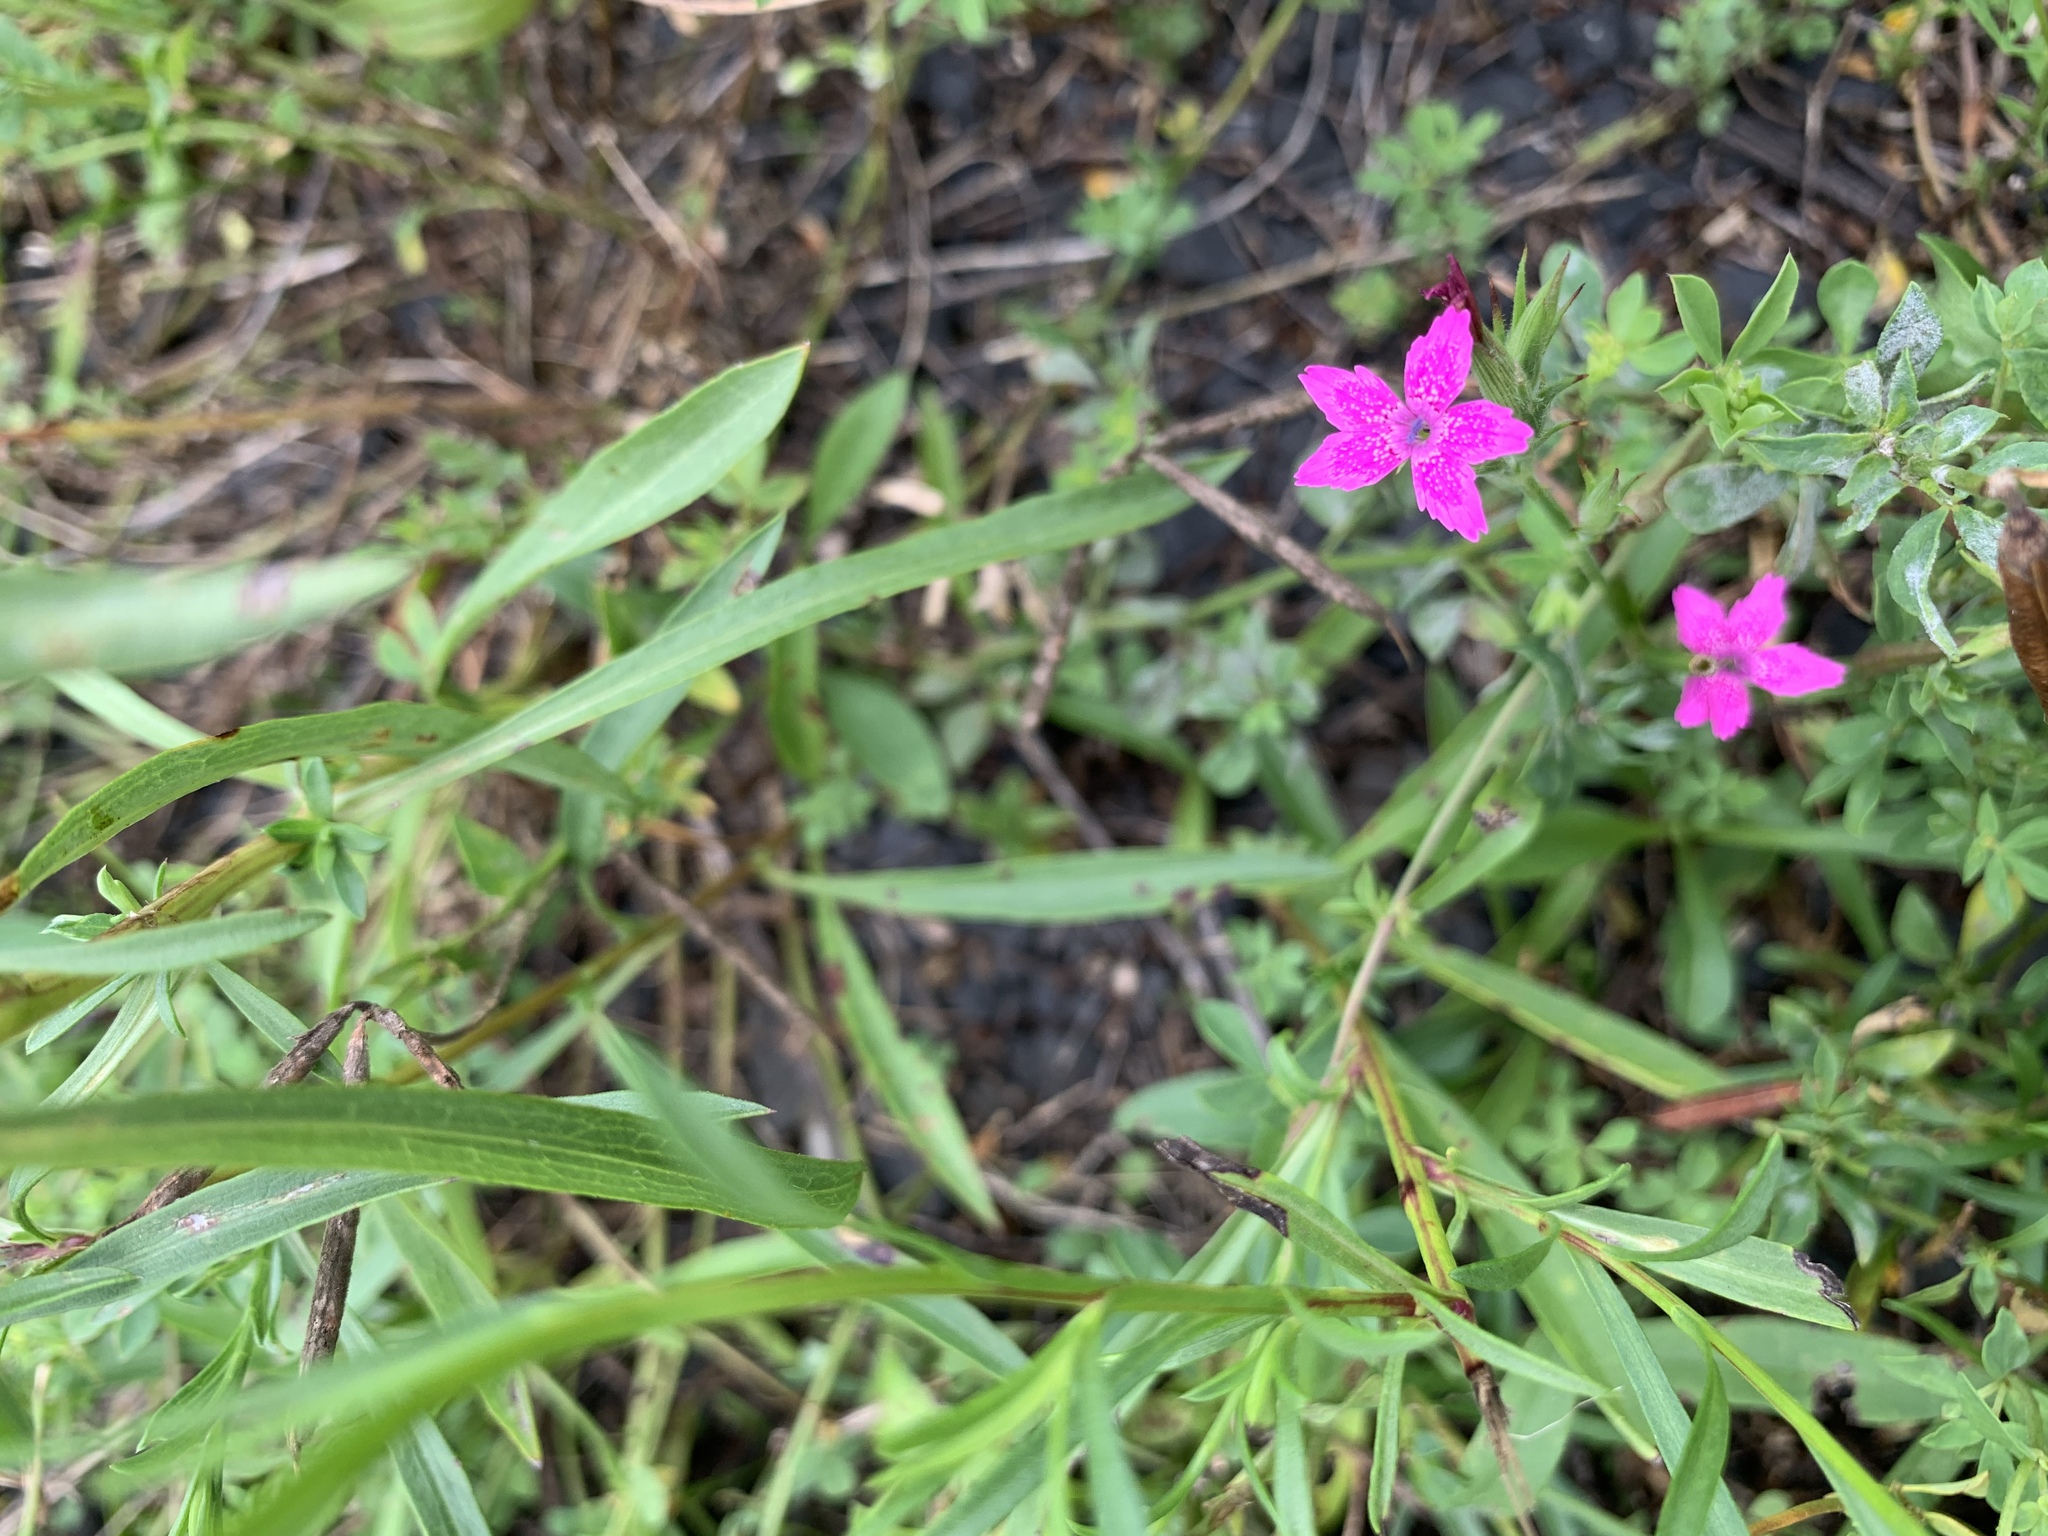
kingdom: Plantae
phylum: Tracheophyta
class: Magnoliopsida
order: Caryophyllales
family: Caryophyllaceae
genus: Dianthus
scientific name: Dianthus armeria
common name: Deptford pink
